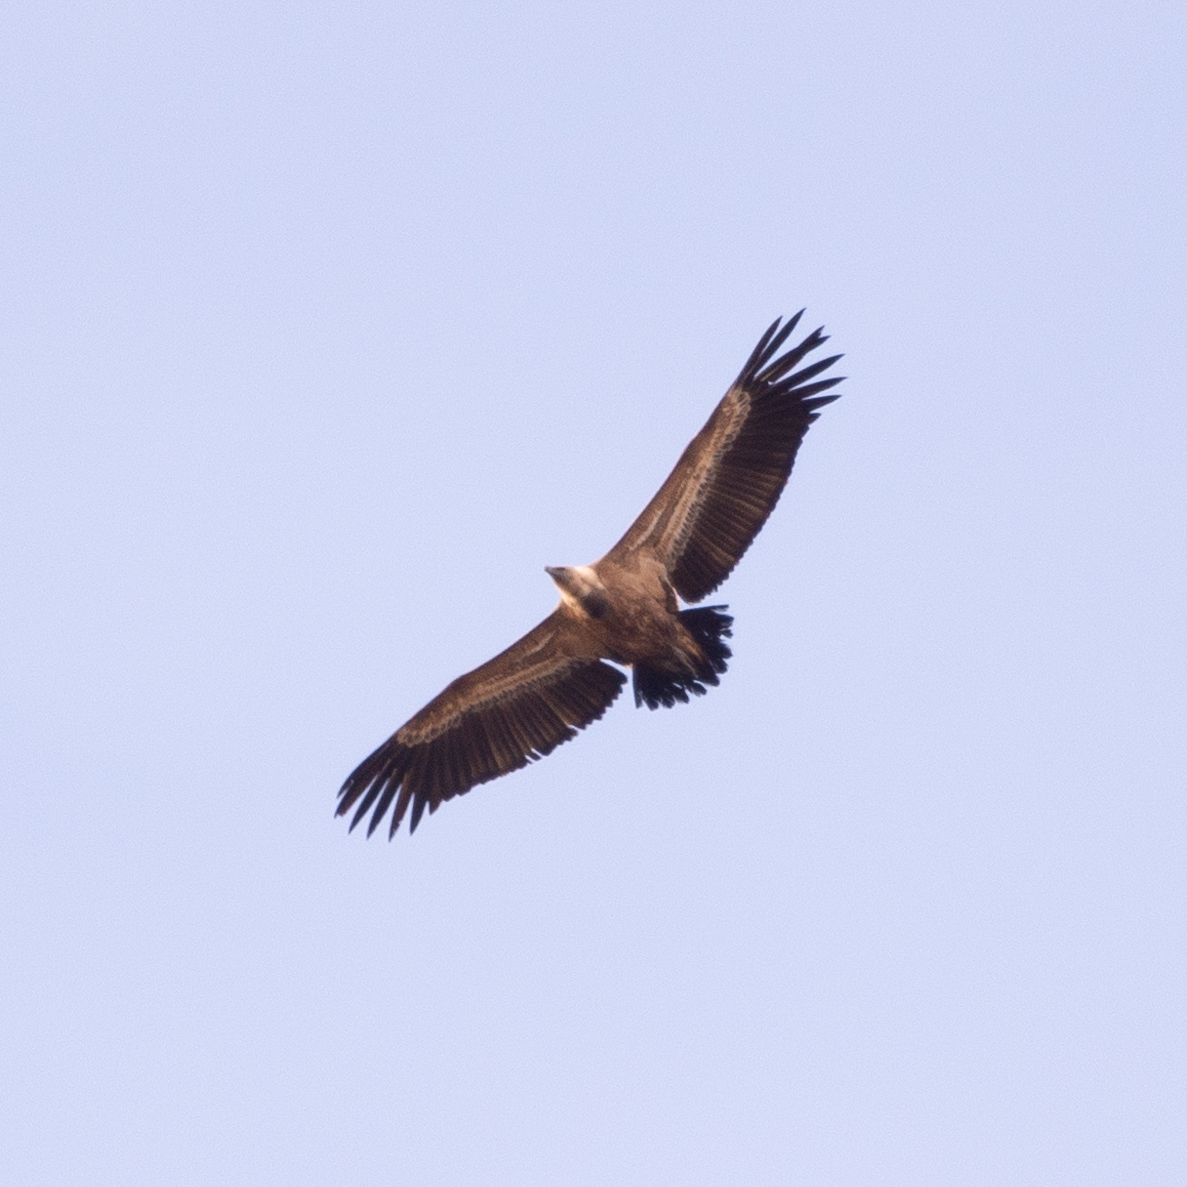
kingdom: Animalia
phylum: Chordata
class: Aves
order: Accipitriformes
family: Accipitridae
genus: Gyps
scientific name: Gyps fulvus
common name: Griffon vulture
